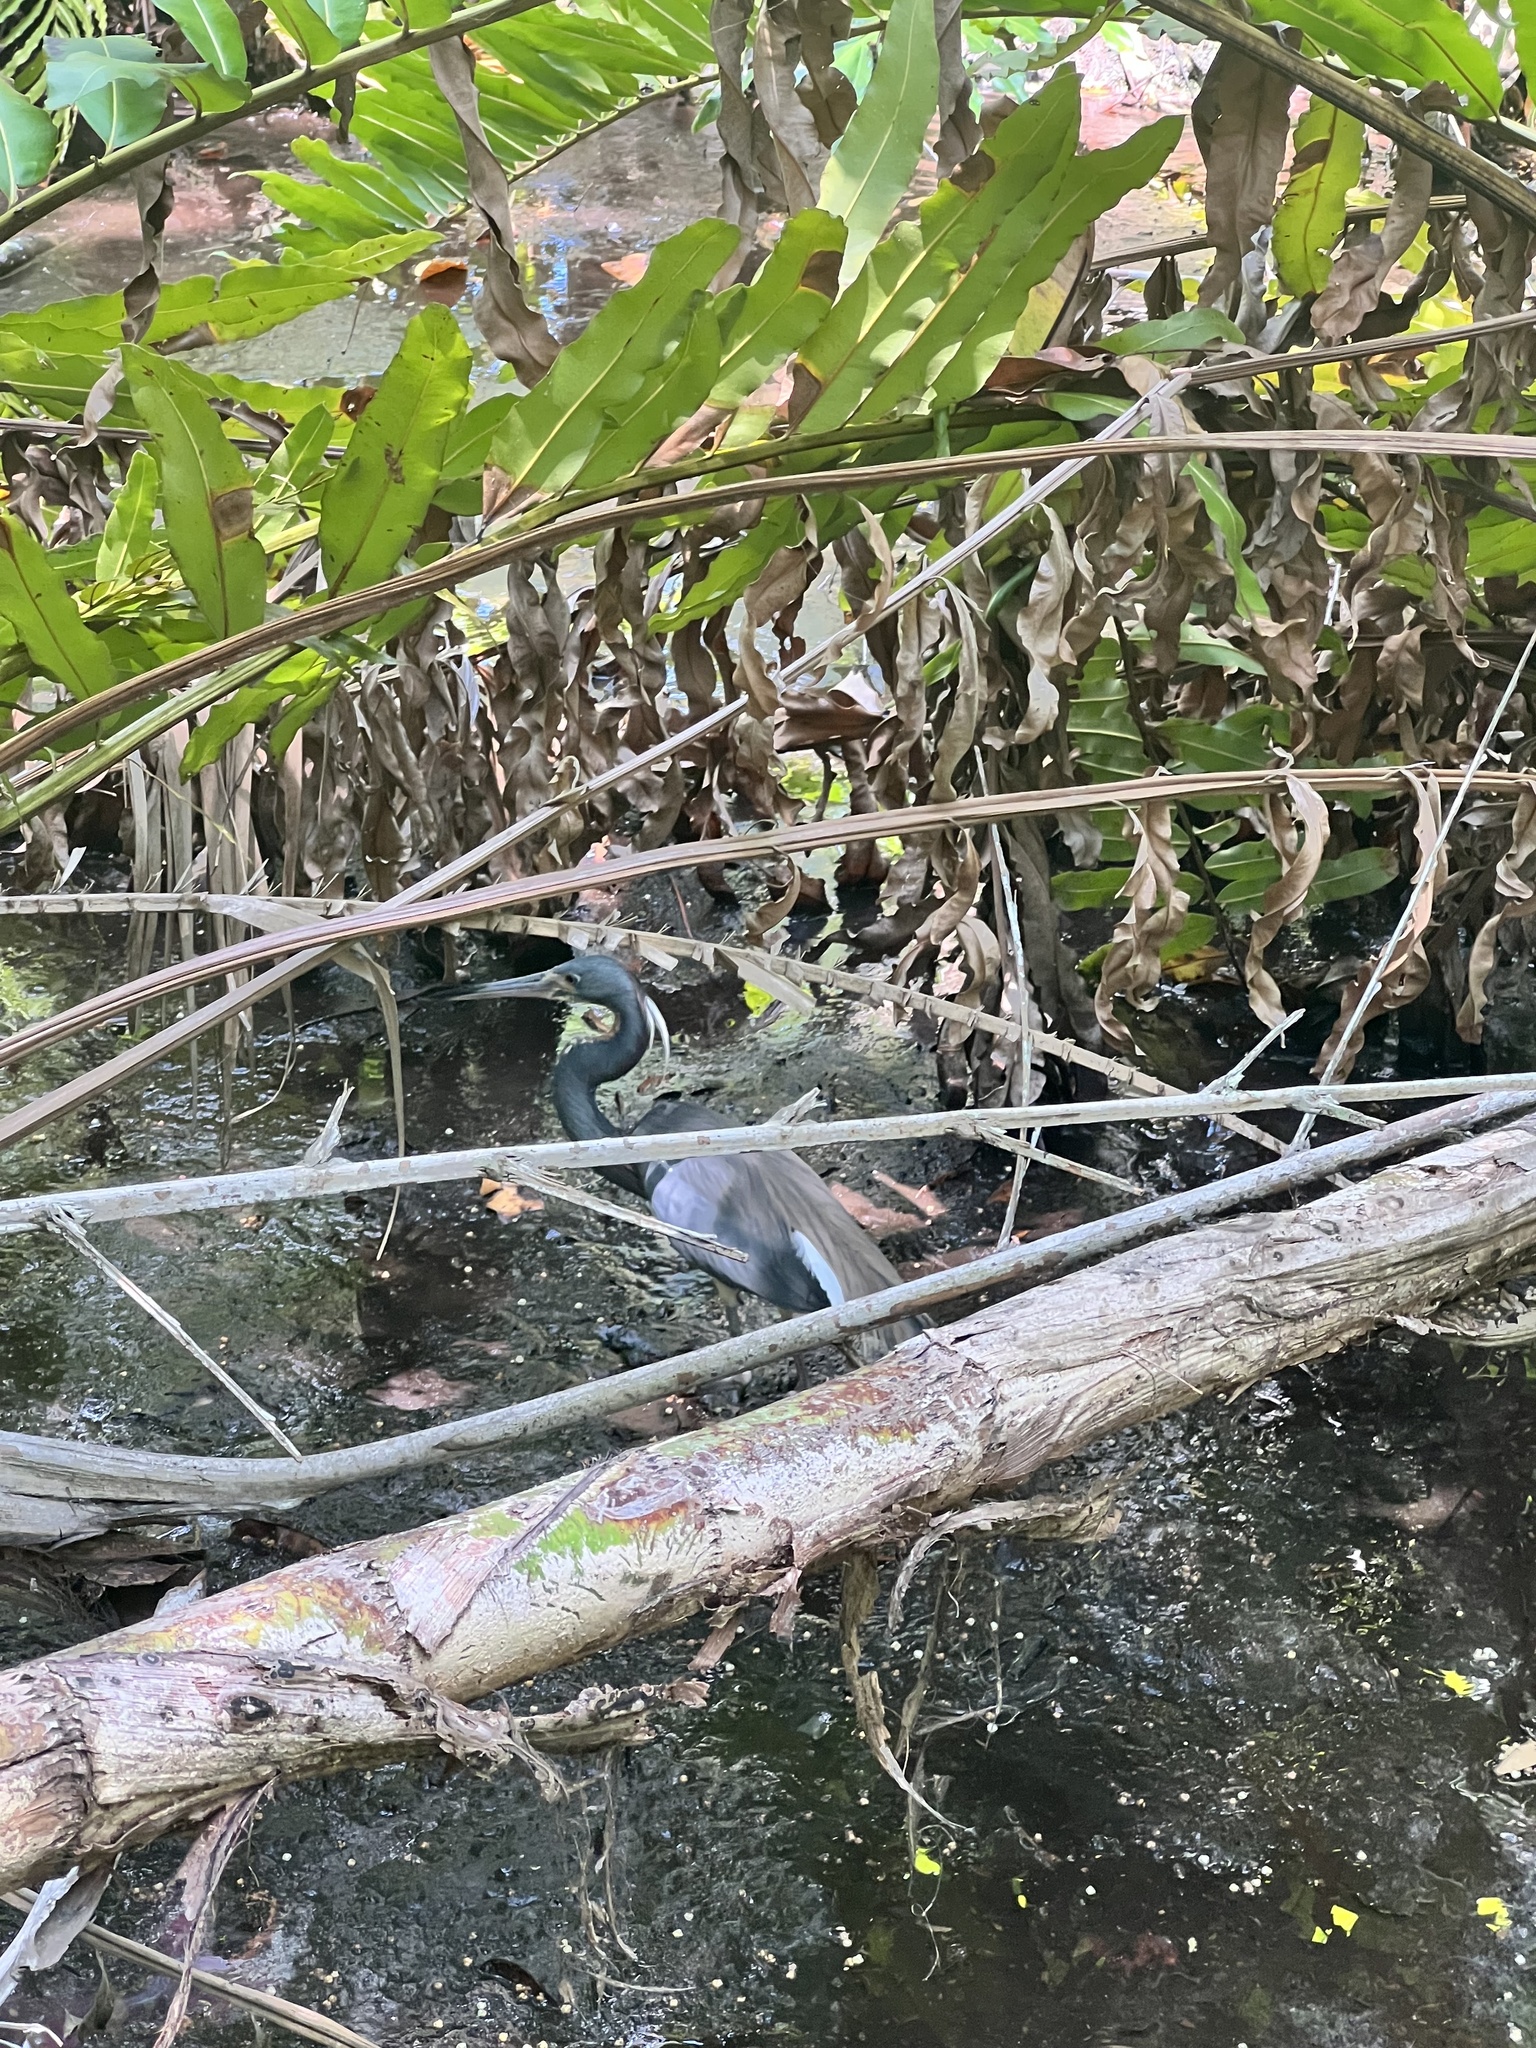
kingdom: Animalia
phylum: Chordata
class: Aves
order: Pelecaniformes
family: Ardeidae
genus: Egretta
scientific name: Egretta tricolor
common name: Tricolored heron
